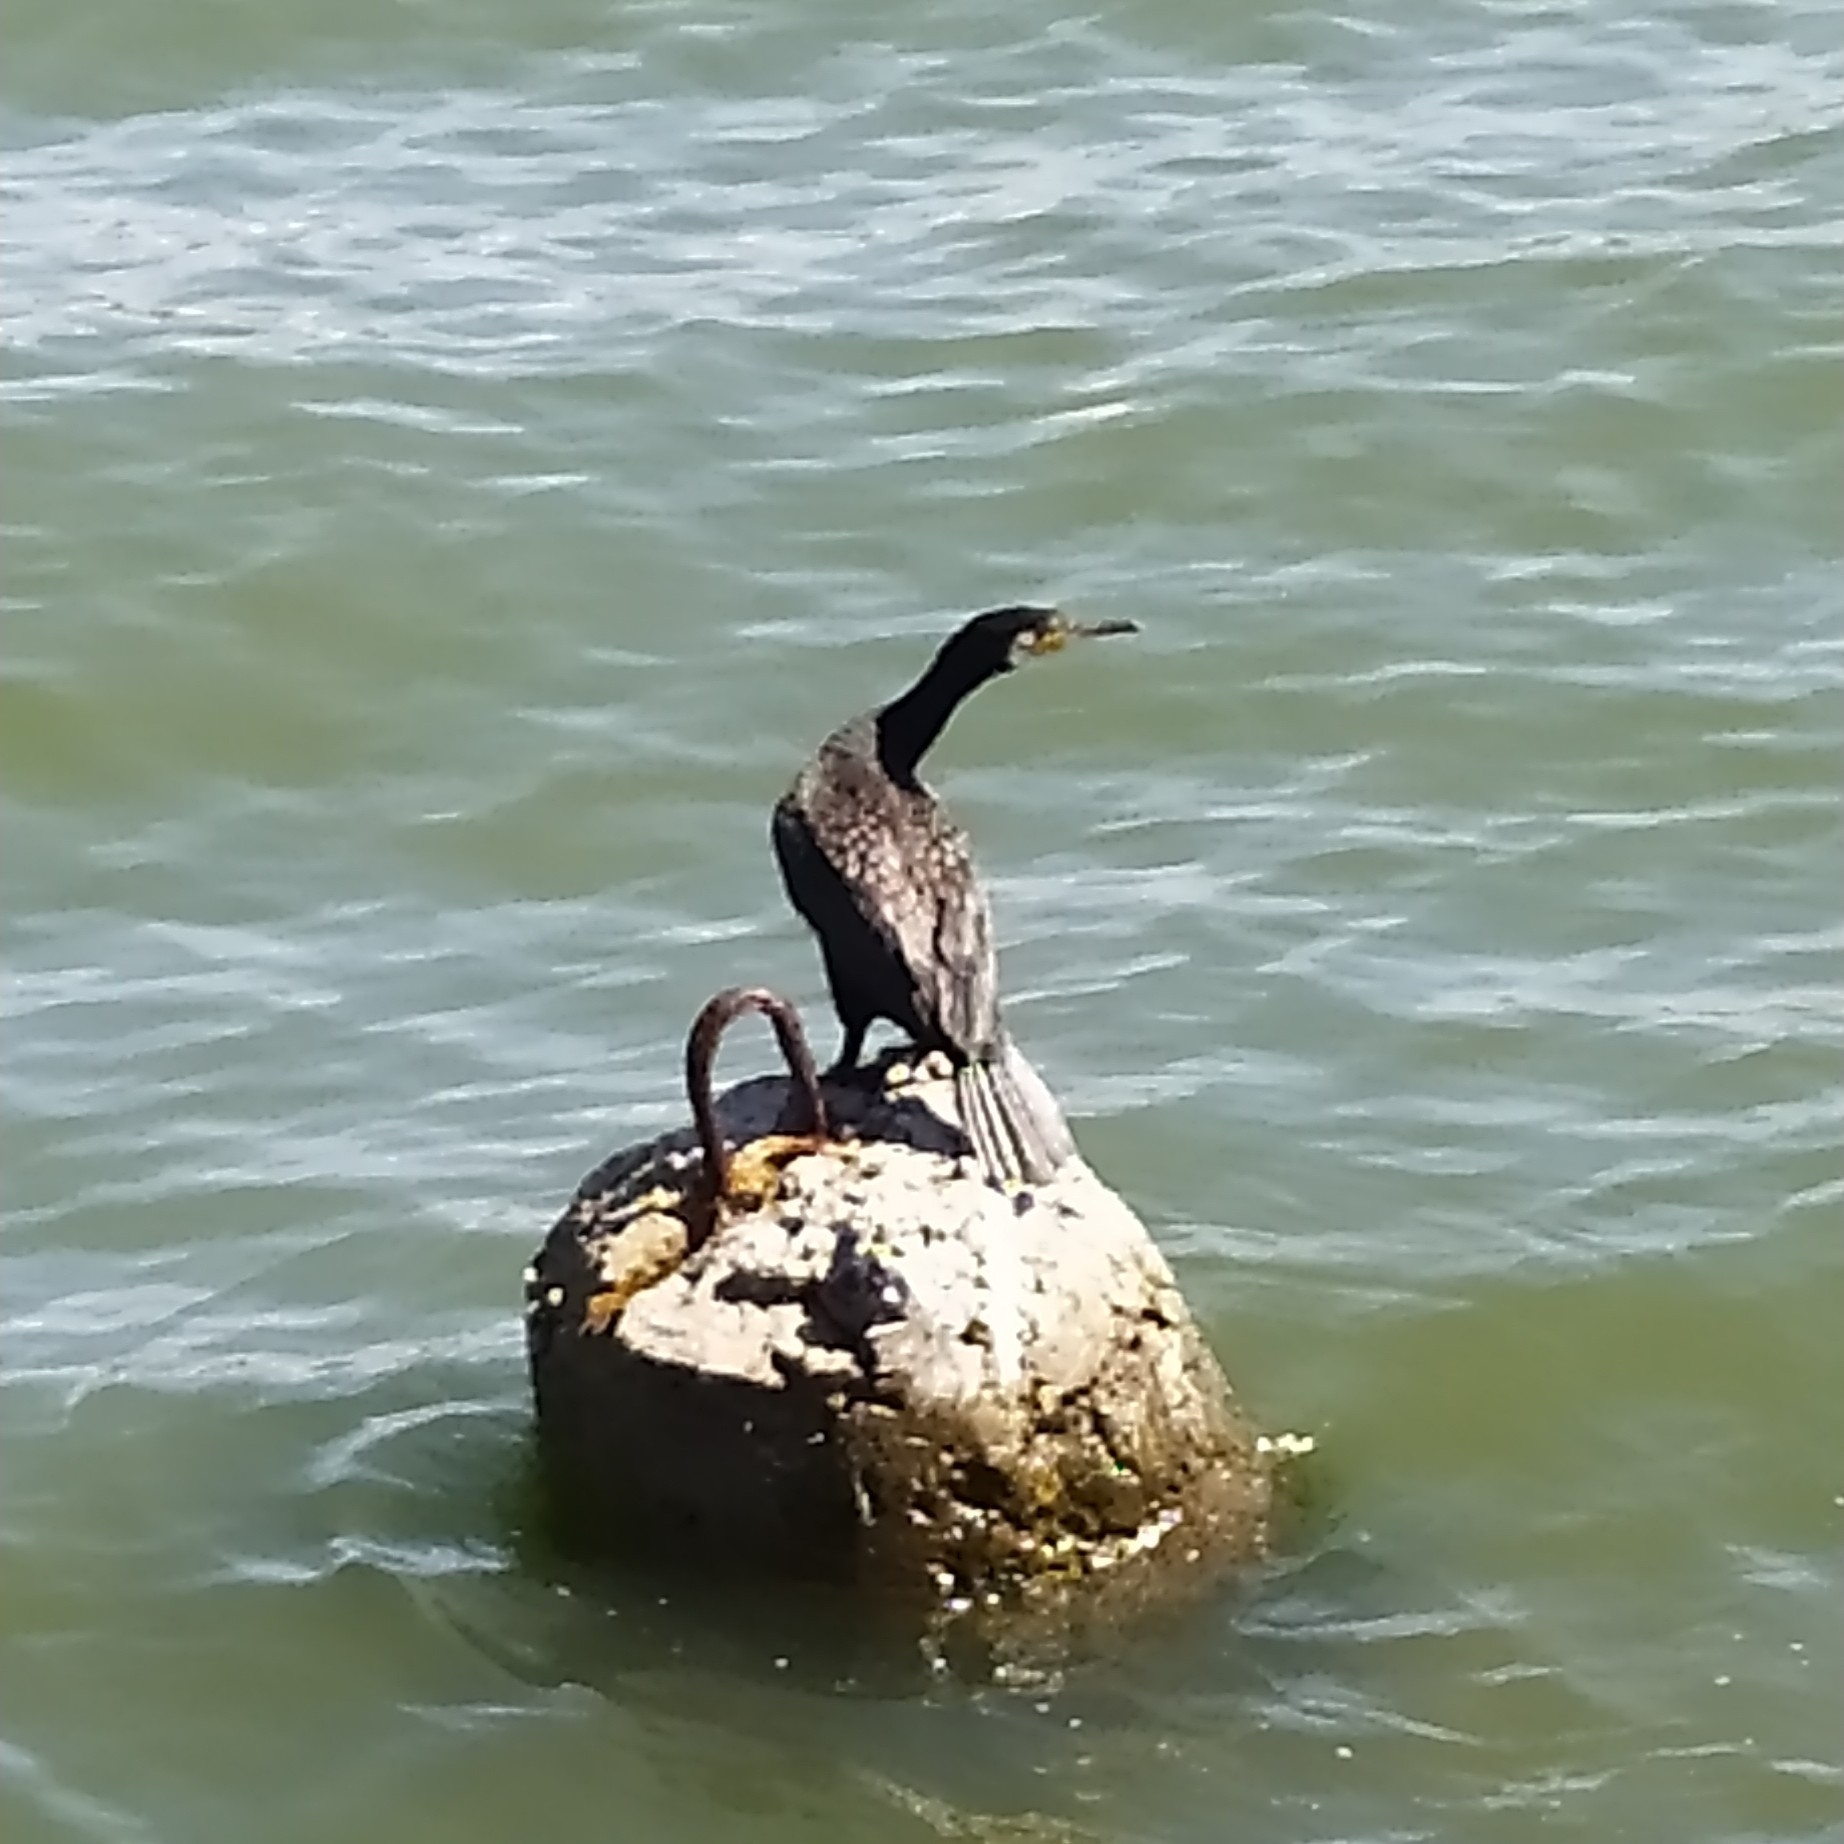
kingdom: Animalia
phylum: Chordata
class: Aves
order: Suliformes
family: Phalacrocoracidae
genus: Phalacrocorax
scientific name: Phalacrocorax carbo
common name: Great cormorant
